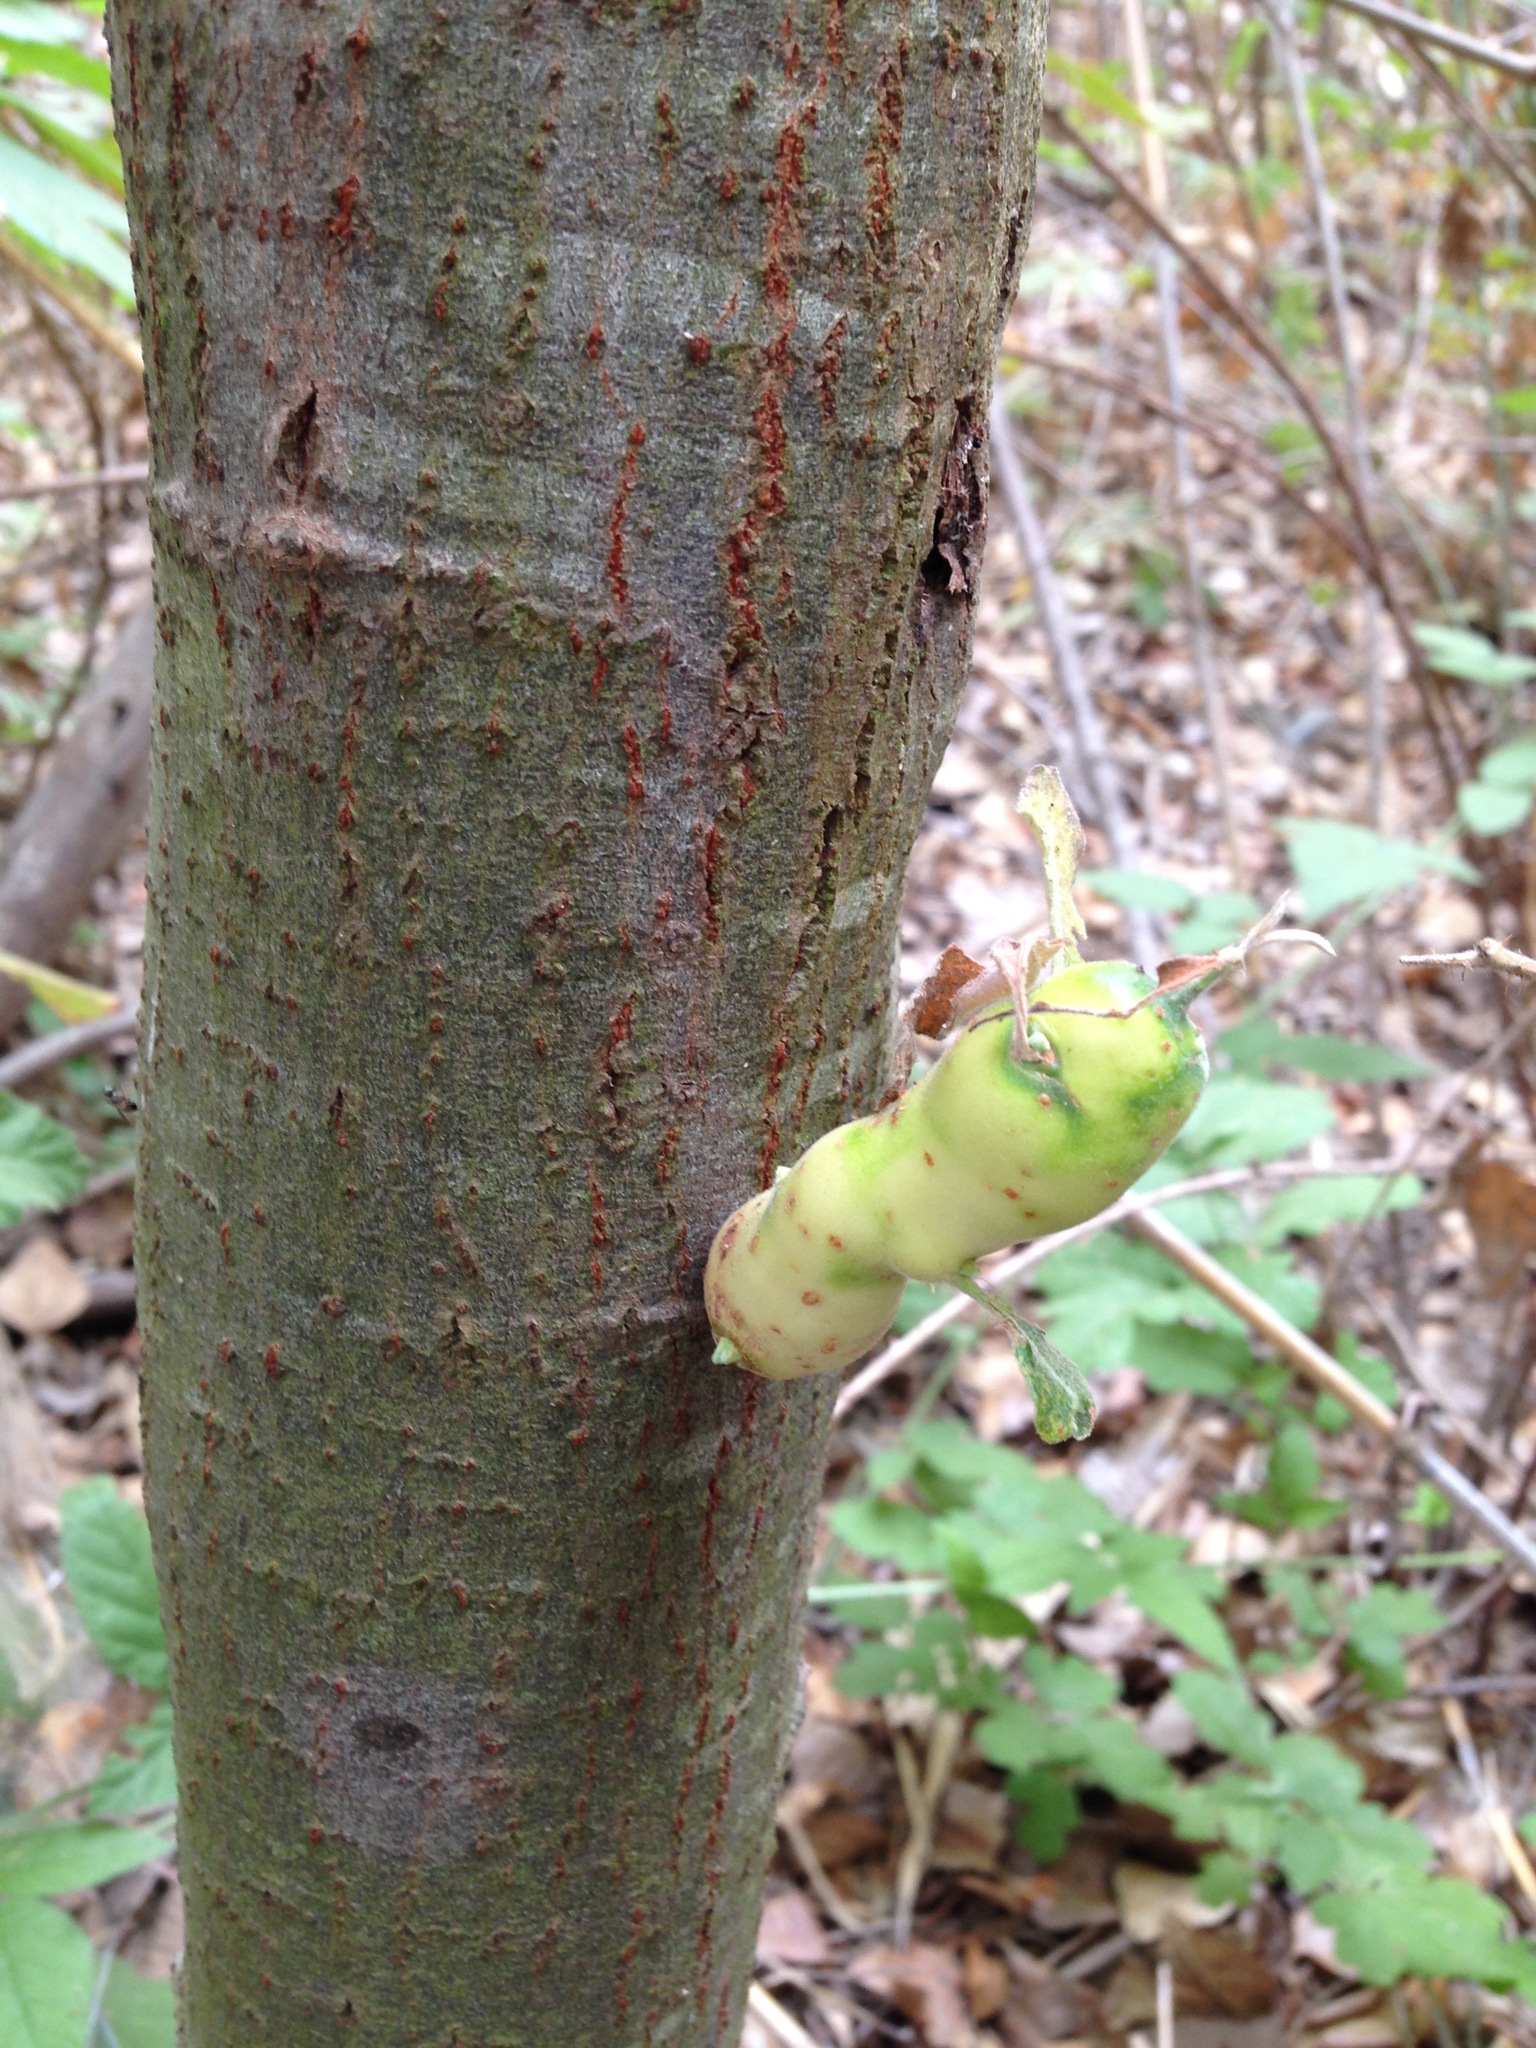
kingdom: Animalia
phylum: Arthropoda
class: Insecta
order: Diptera
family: Cecidomyiidae
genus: Rabdophaga
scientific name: Rabdophaga salicisbatatas
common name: Potato gall midge
